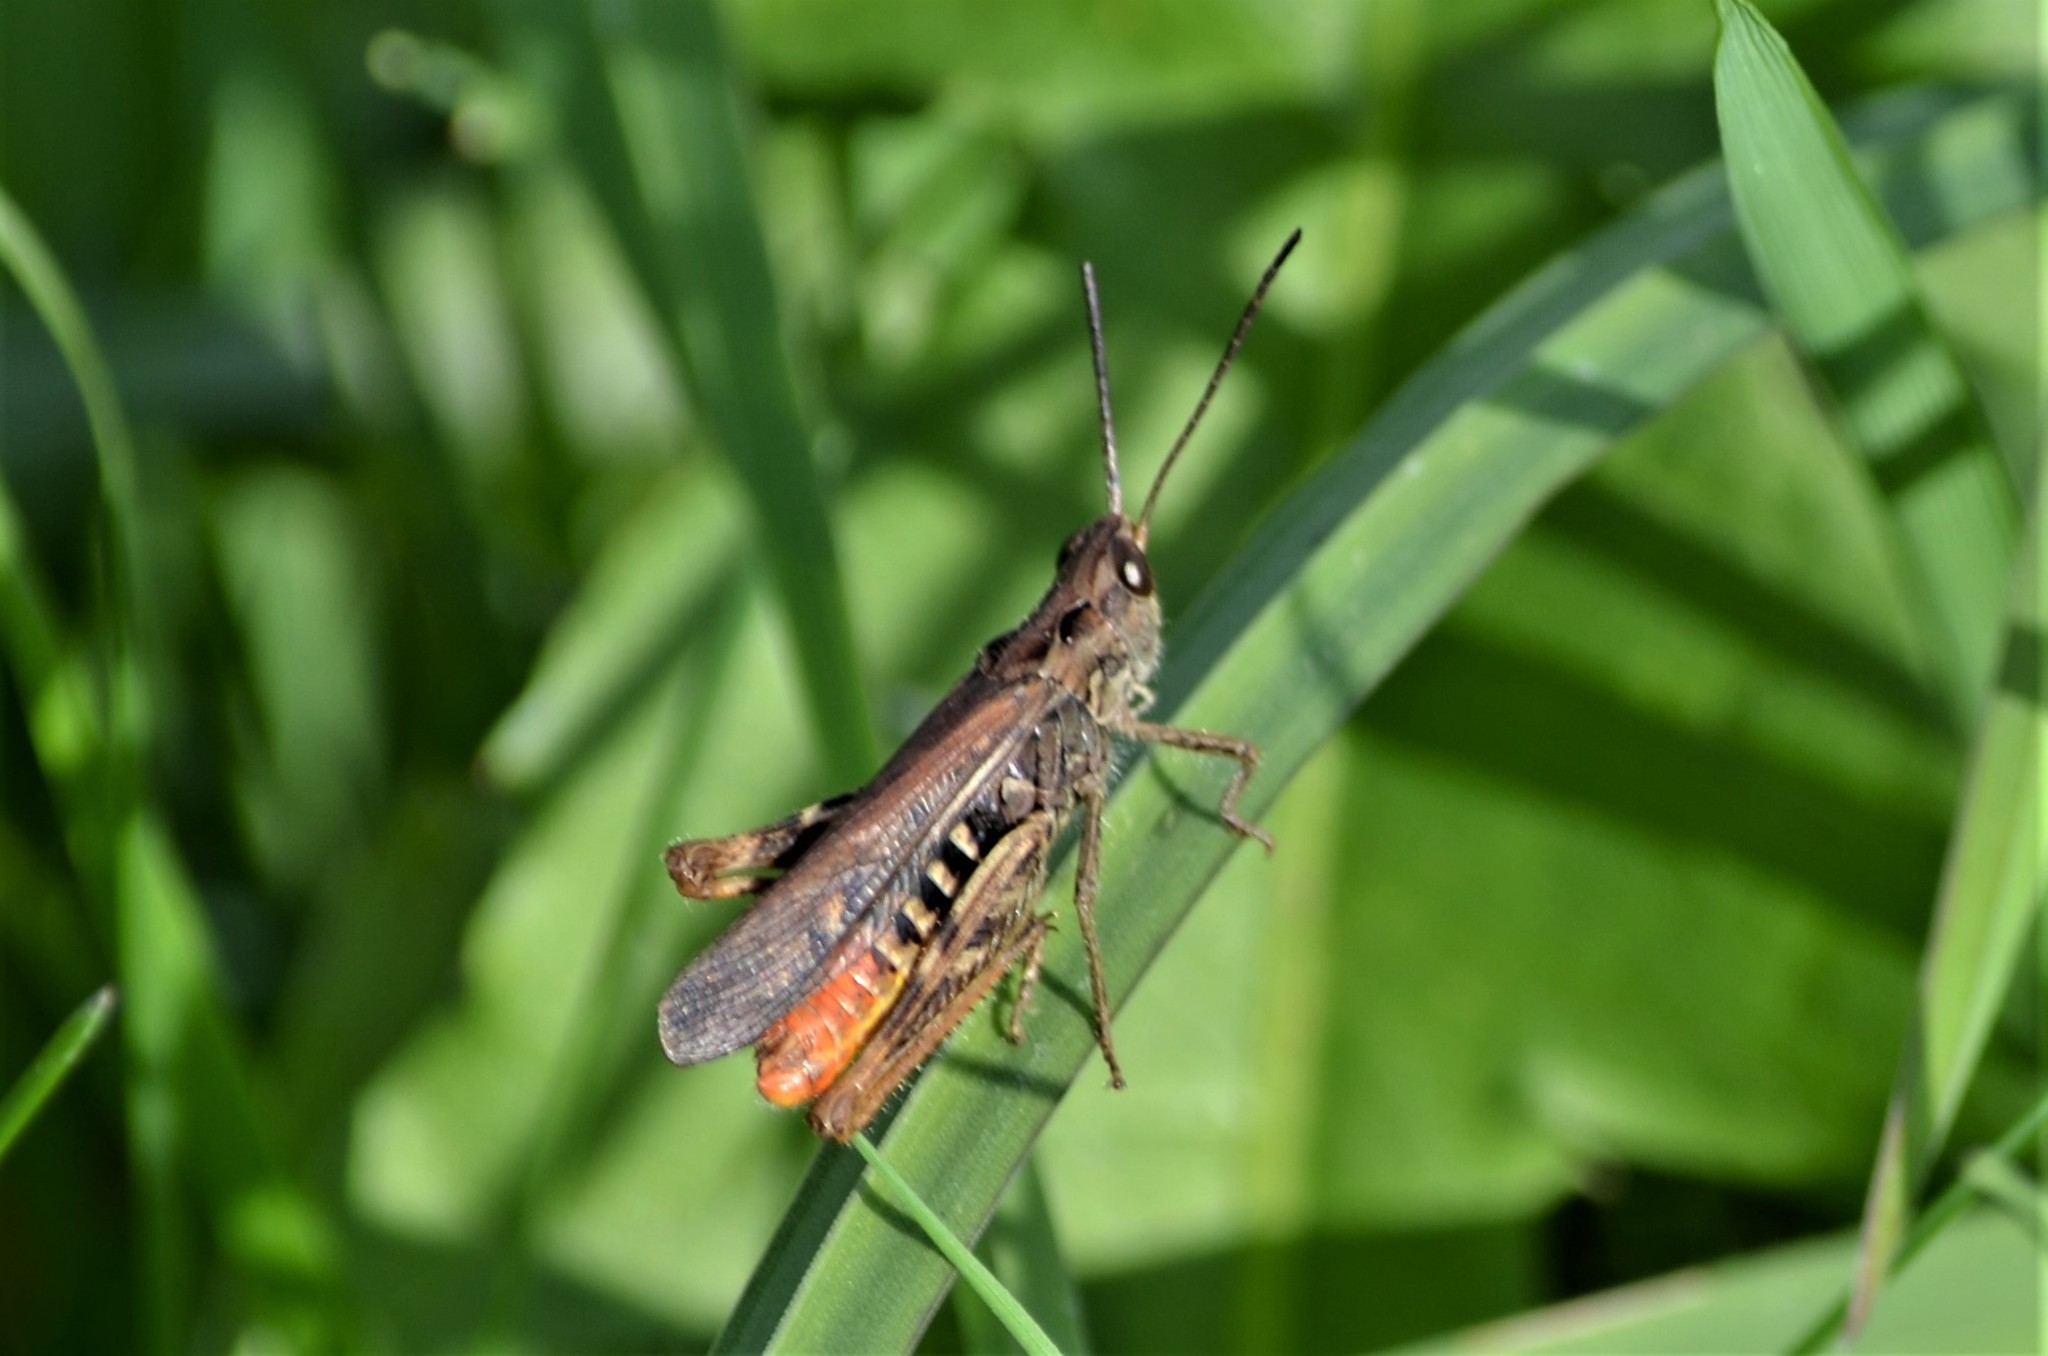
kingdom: Animalia
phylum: Arthropoda
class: Insecta
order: Orthoptera
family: Acrididae
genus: Chorthippus
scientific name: Chorthippus brunneus
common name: Field grasshopper
